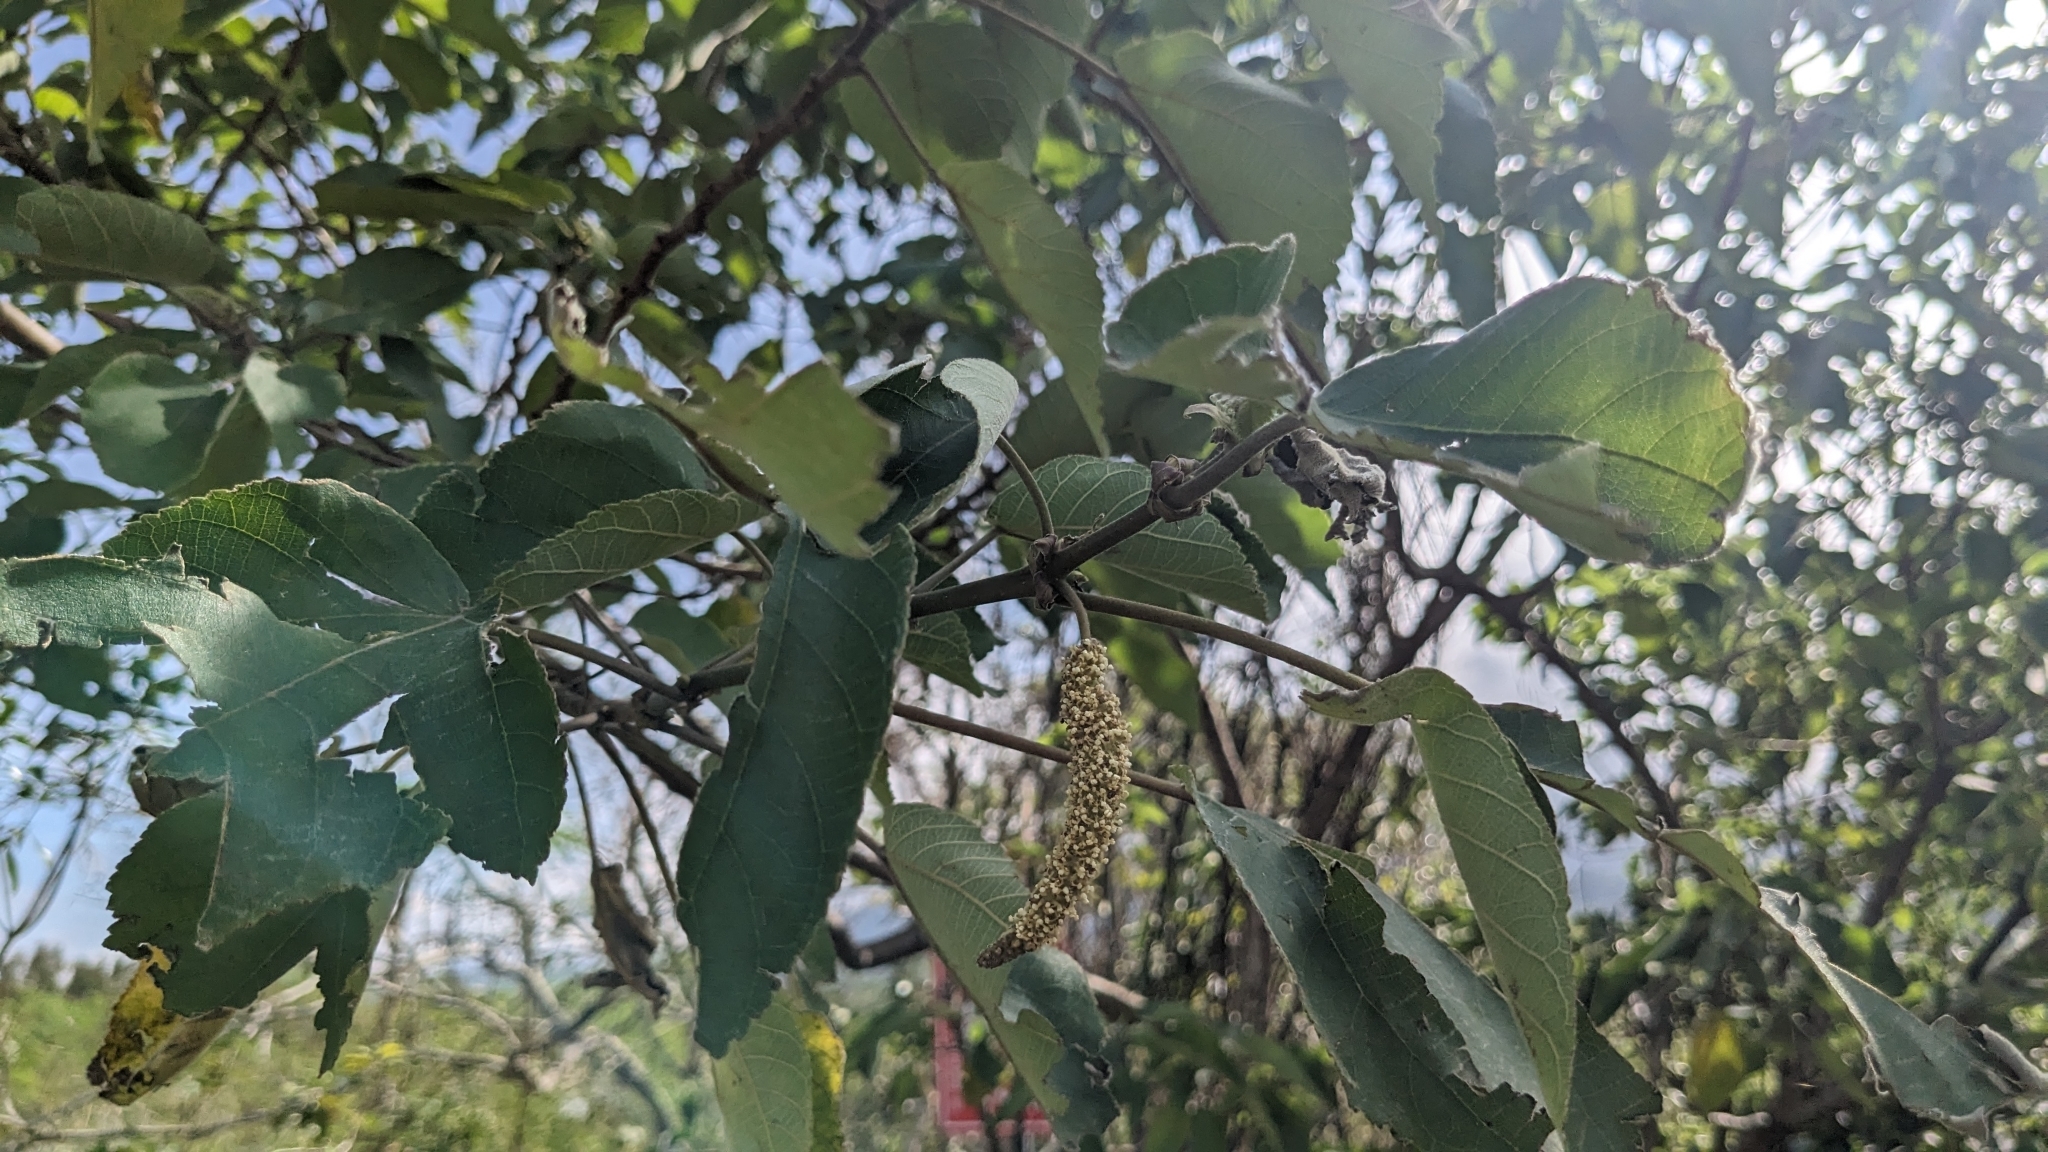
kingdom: Plantae
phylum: Tracheophyta
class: Magnoliopsida
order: Rosales
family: Moraceae
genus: Broussonetia
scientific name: Broussonetia papyrifera
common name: Paper mulberry
